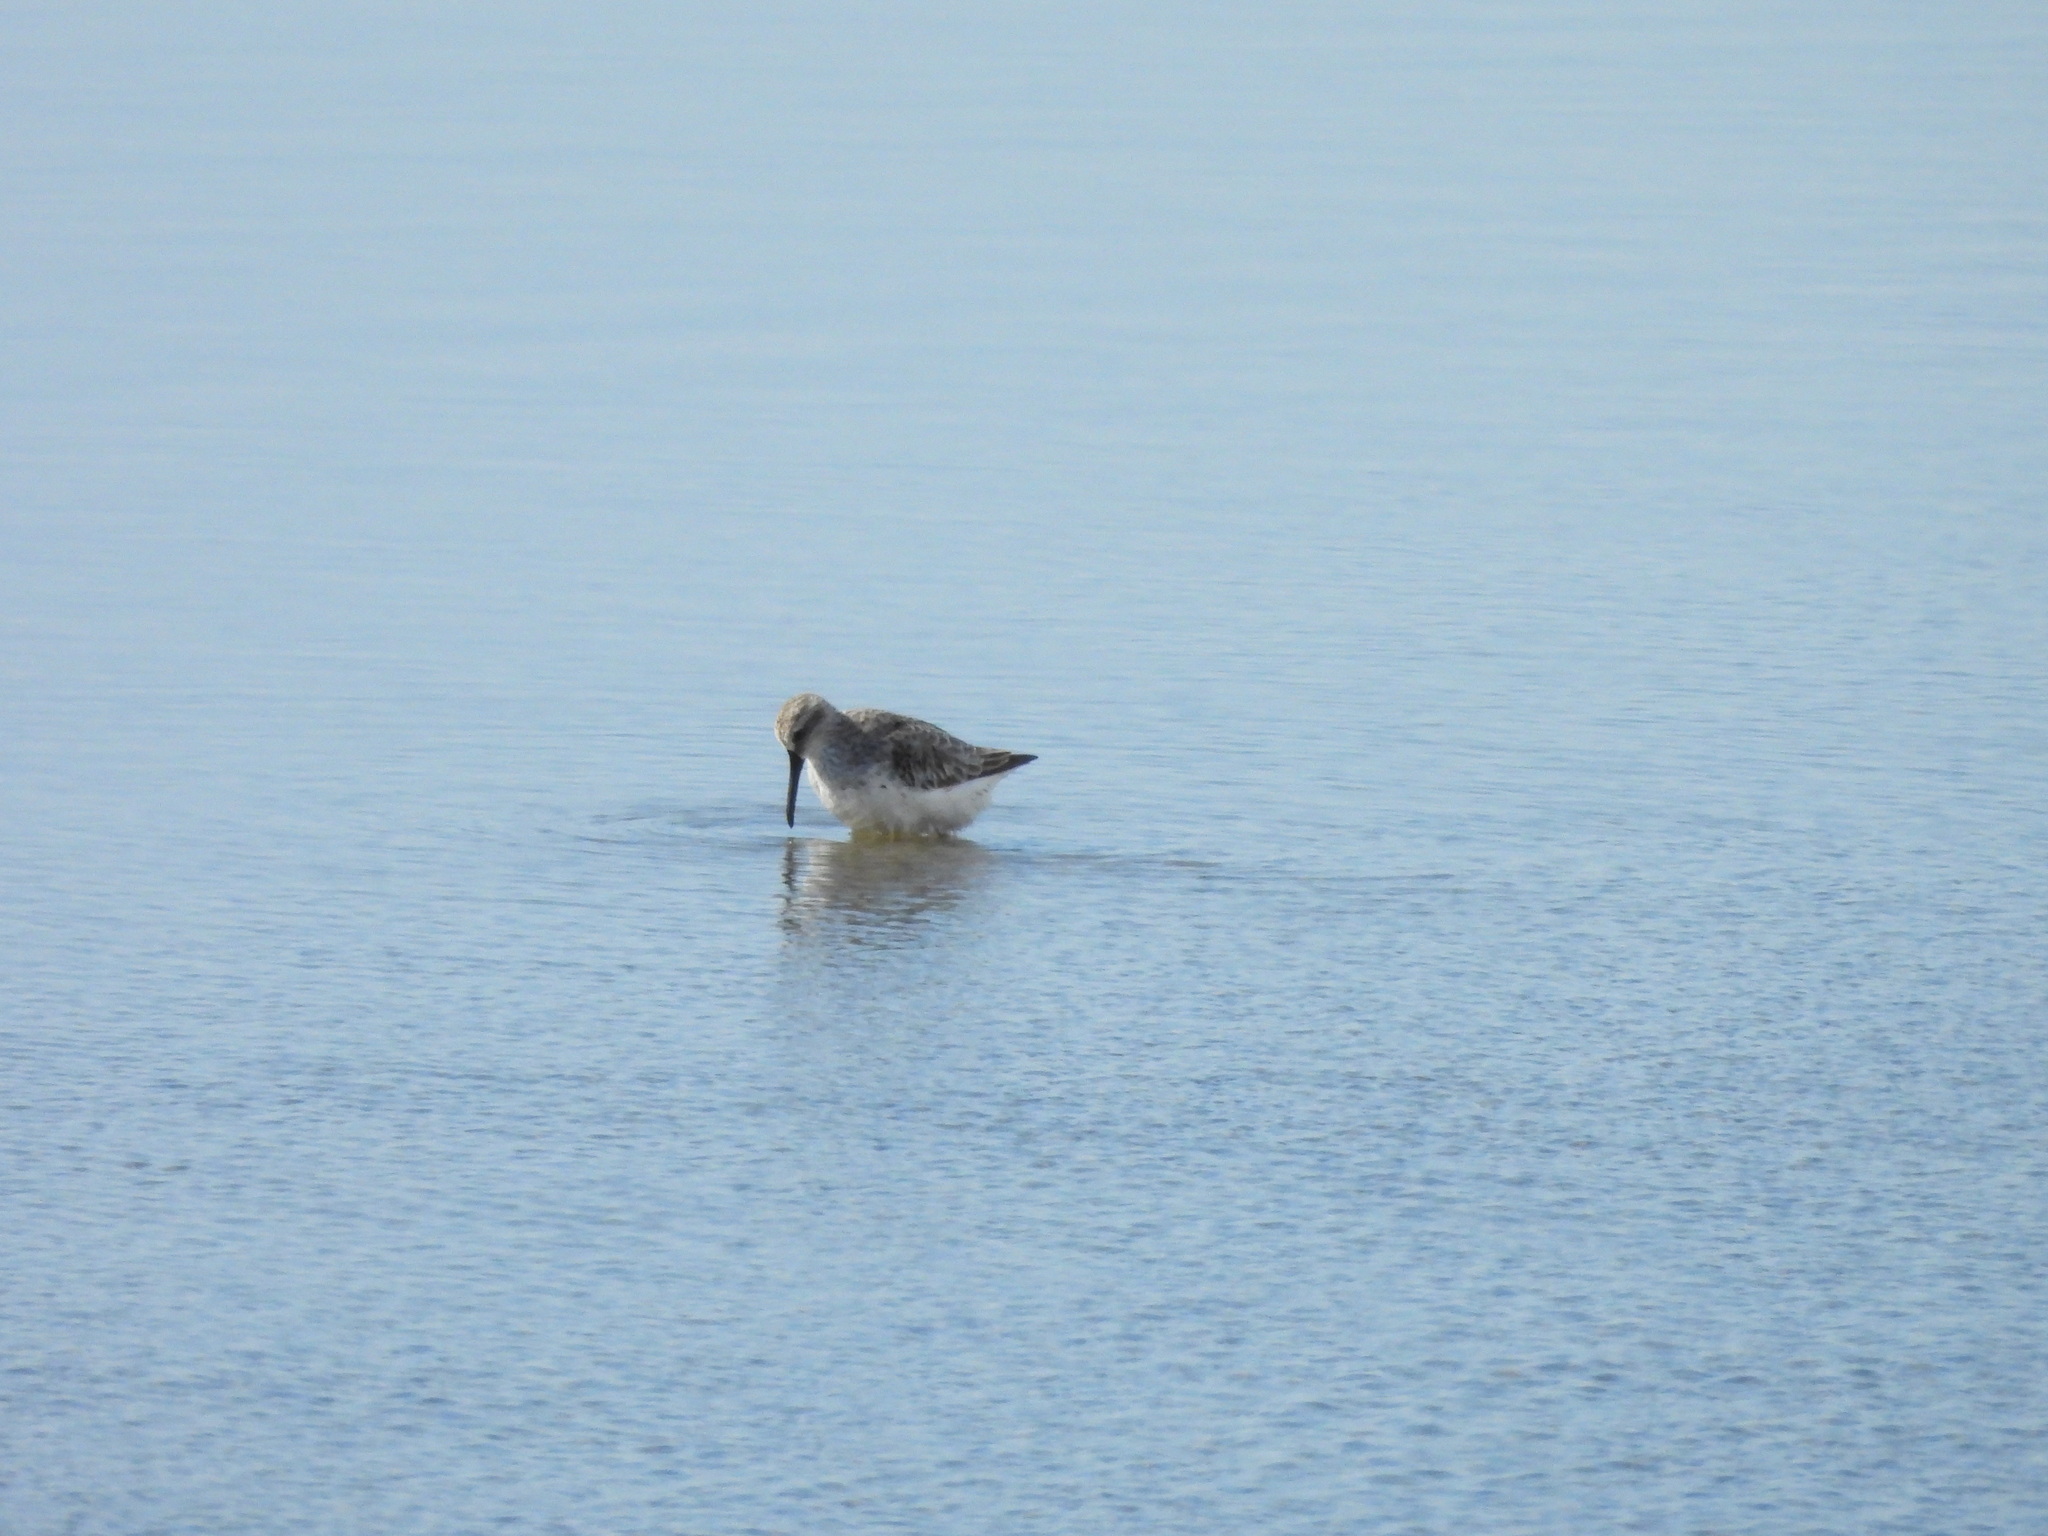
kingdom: Animalia
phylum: Chordata
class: Aves
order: Charadriiformes
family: Scolopacidae
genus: Calidris
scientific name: Calidris falcinellus
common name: Broad-billed sandpiper
